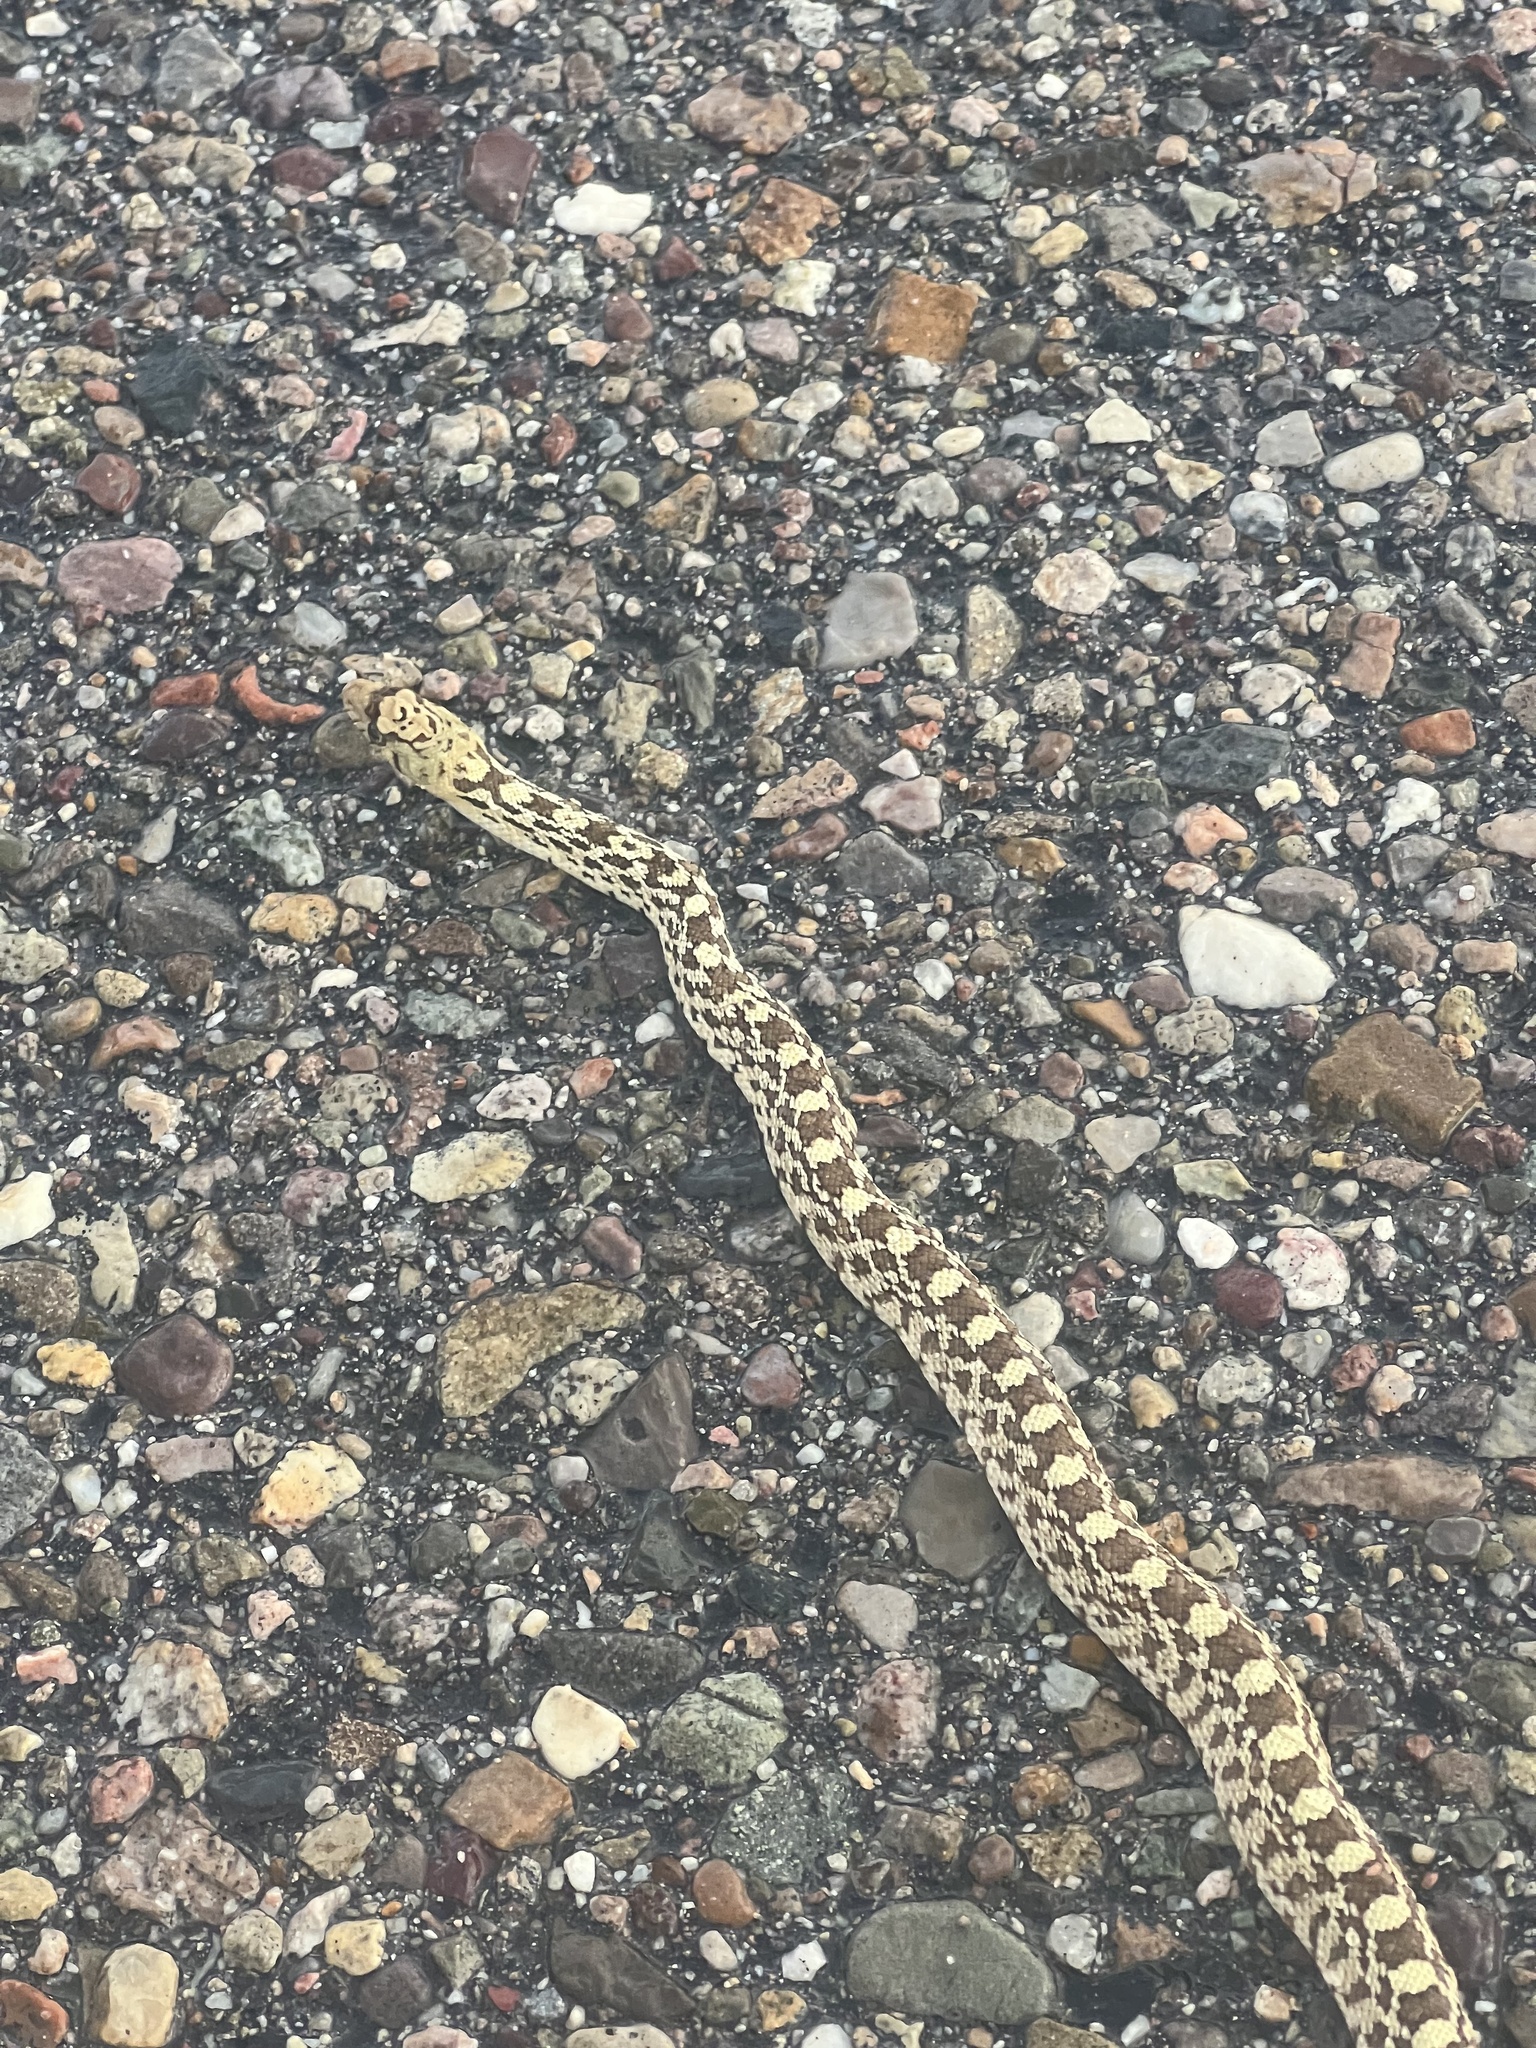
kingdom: Animalia
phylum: Chordata
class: Squamata
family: Colubridae
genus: Pituophis
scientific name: Pituophis catenifer
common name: Gopher snake
